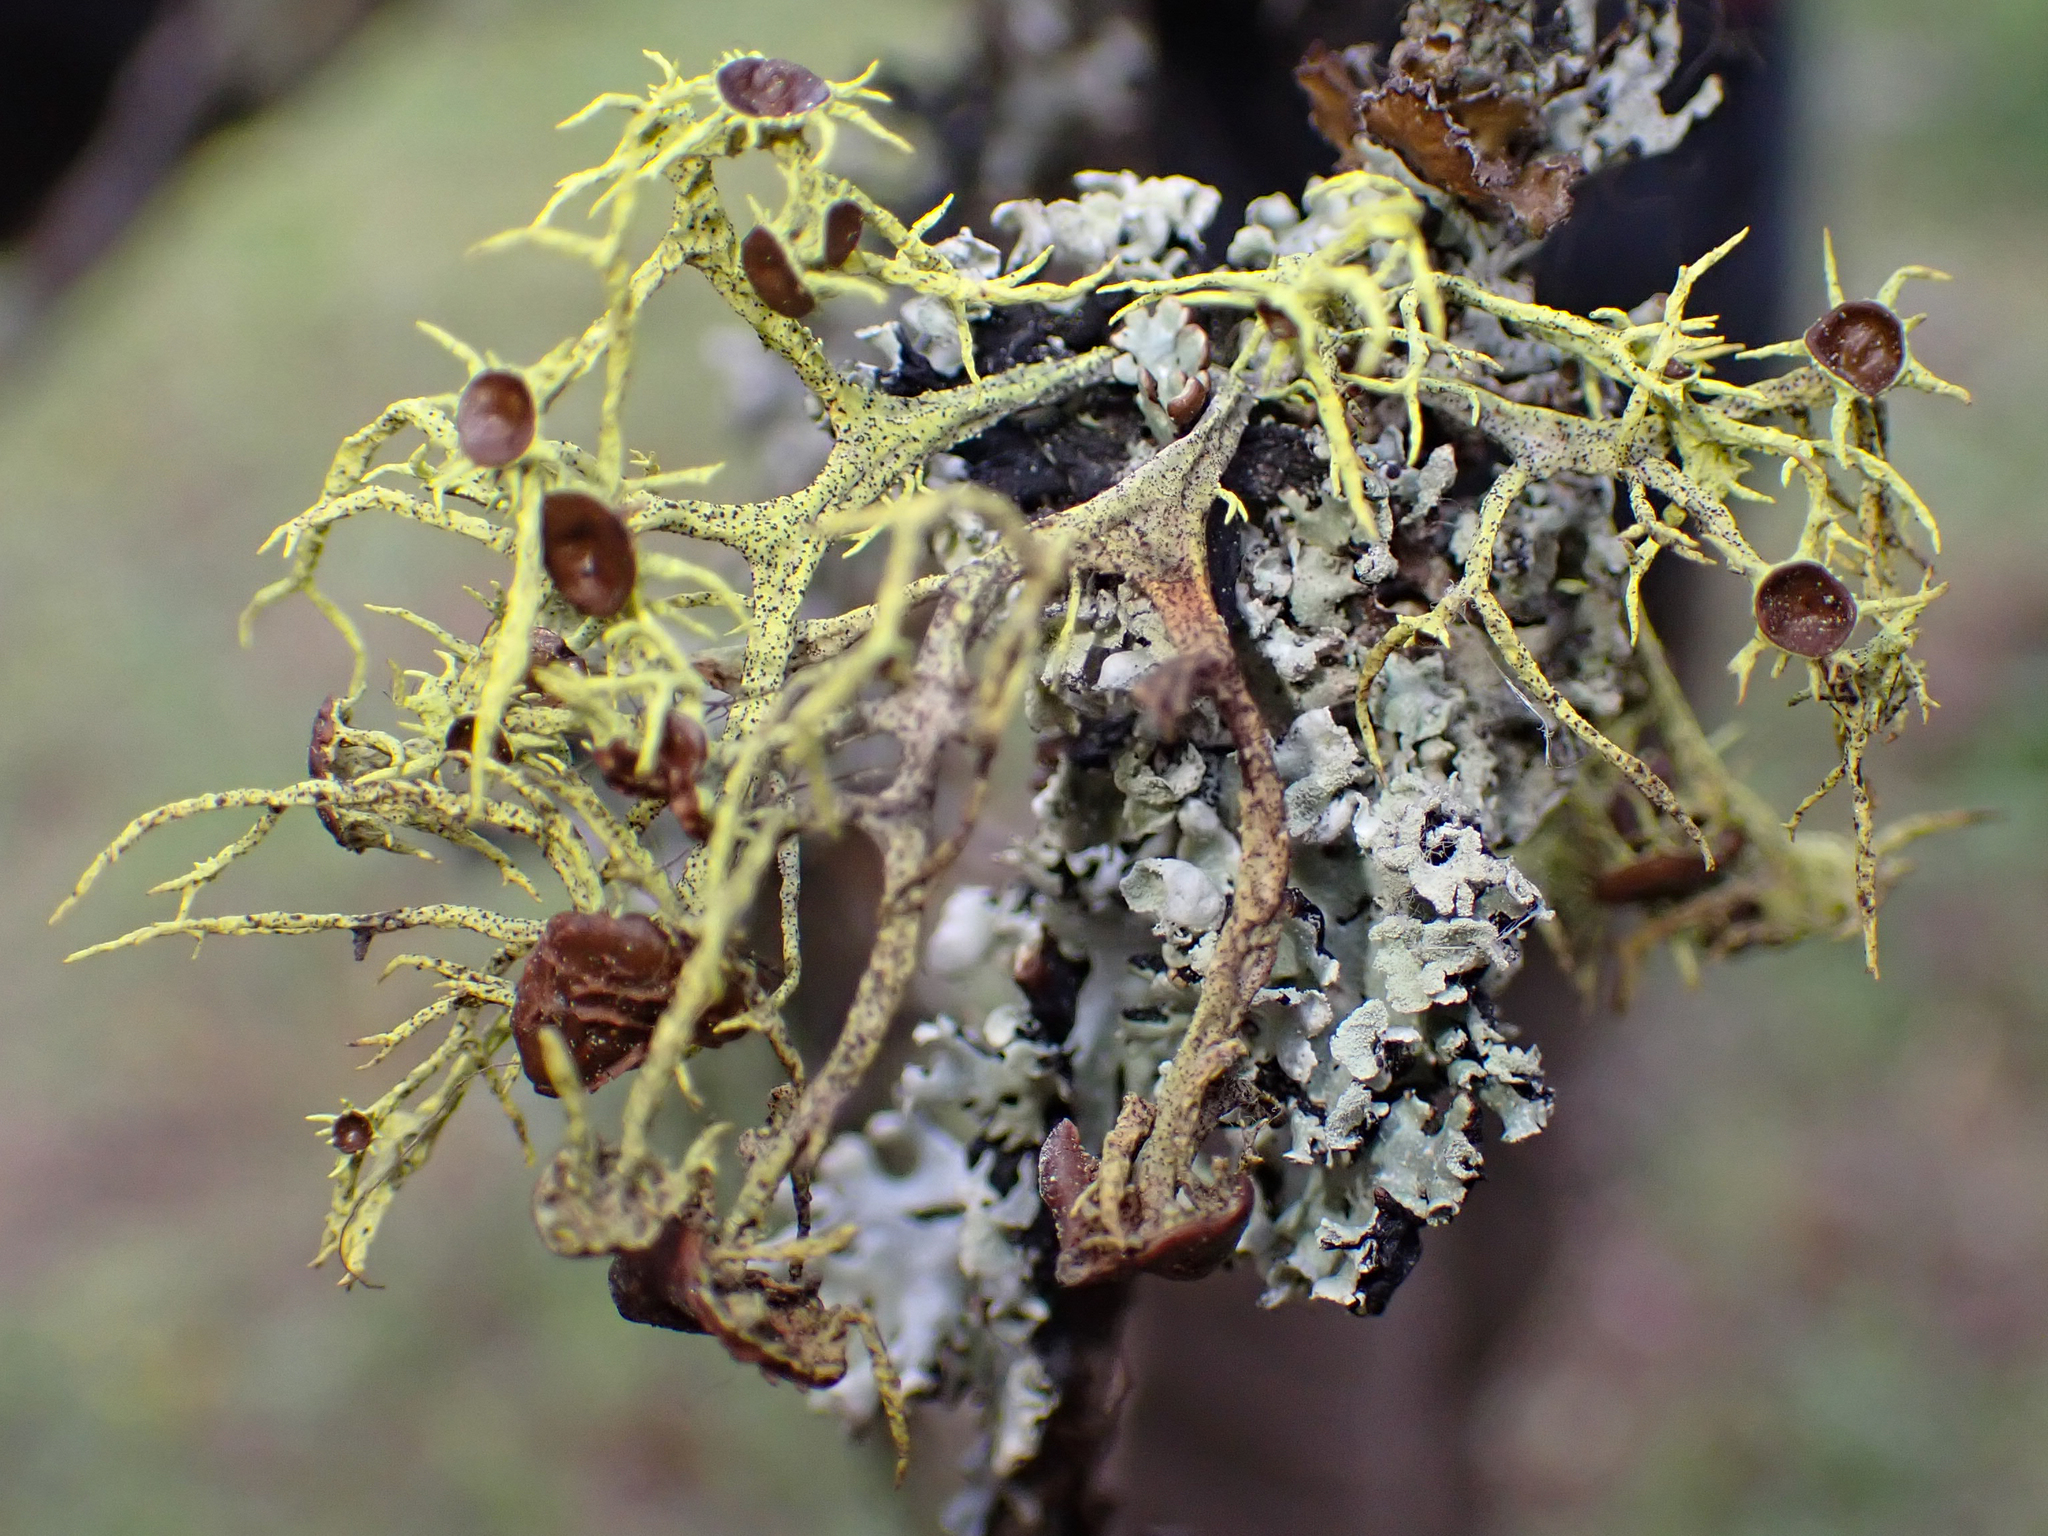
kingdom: Fungi
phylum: Ascomycota
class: Lecanoromycetes
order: Lecanorales
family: Parmeliaceae
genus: Letharia
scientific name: Letharia columbiana
